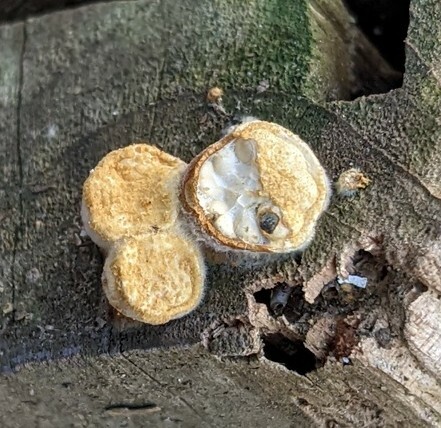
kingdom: Fungi
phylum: Basidiomycota
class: Agaricomycetes
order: Agaricales
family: Nidulariaceae
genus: Crucibulum
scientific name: Crucibulum laeve
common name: Common bird's nest
